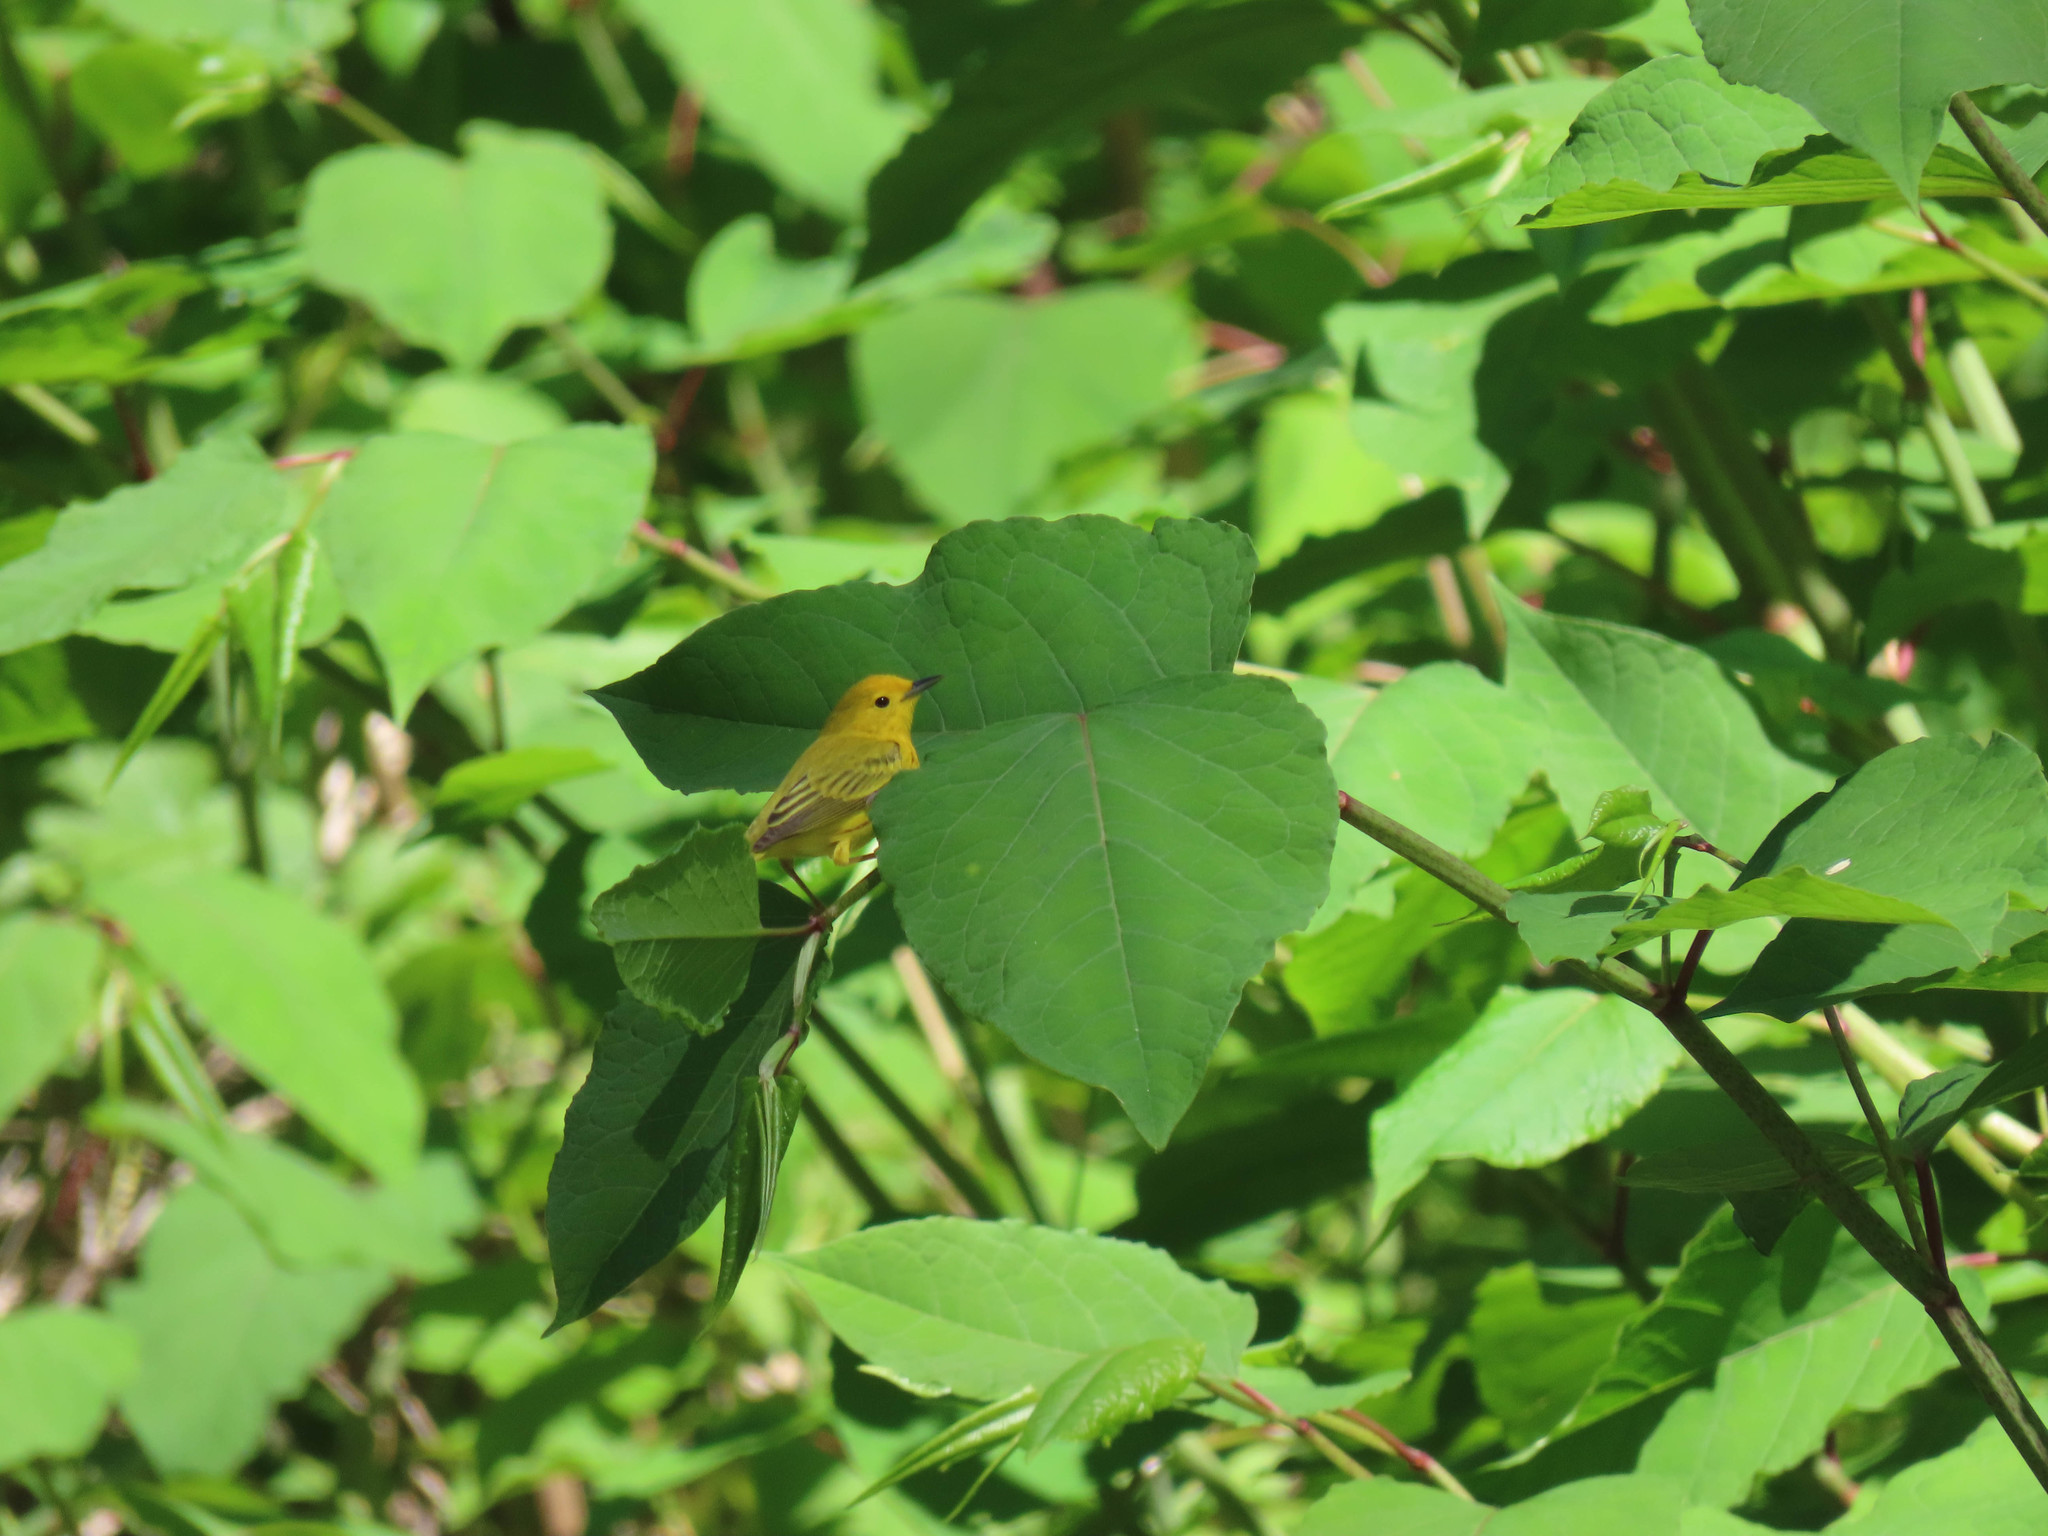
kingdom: Animalia
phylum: Chordata
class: Aves
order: Passeriformes
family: Parulidae
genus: Setophaga
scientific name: Setophaga petechia
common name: Yellow warbler
